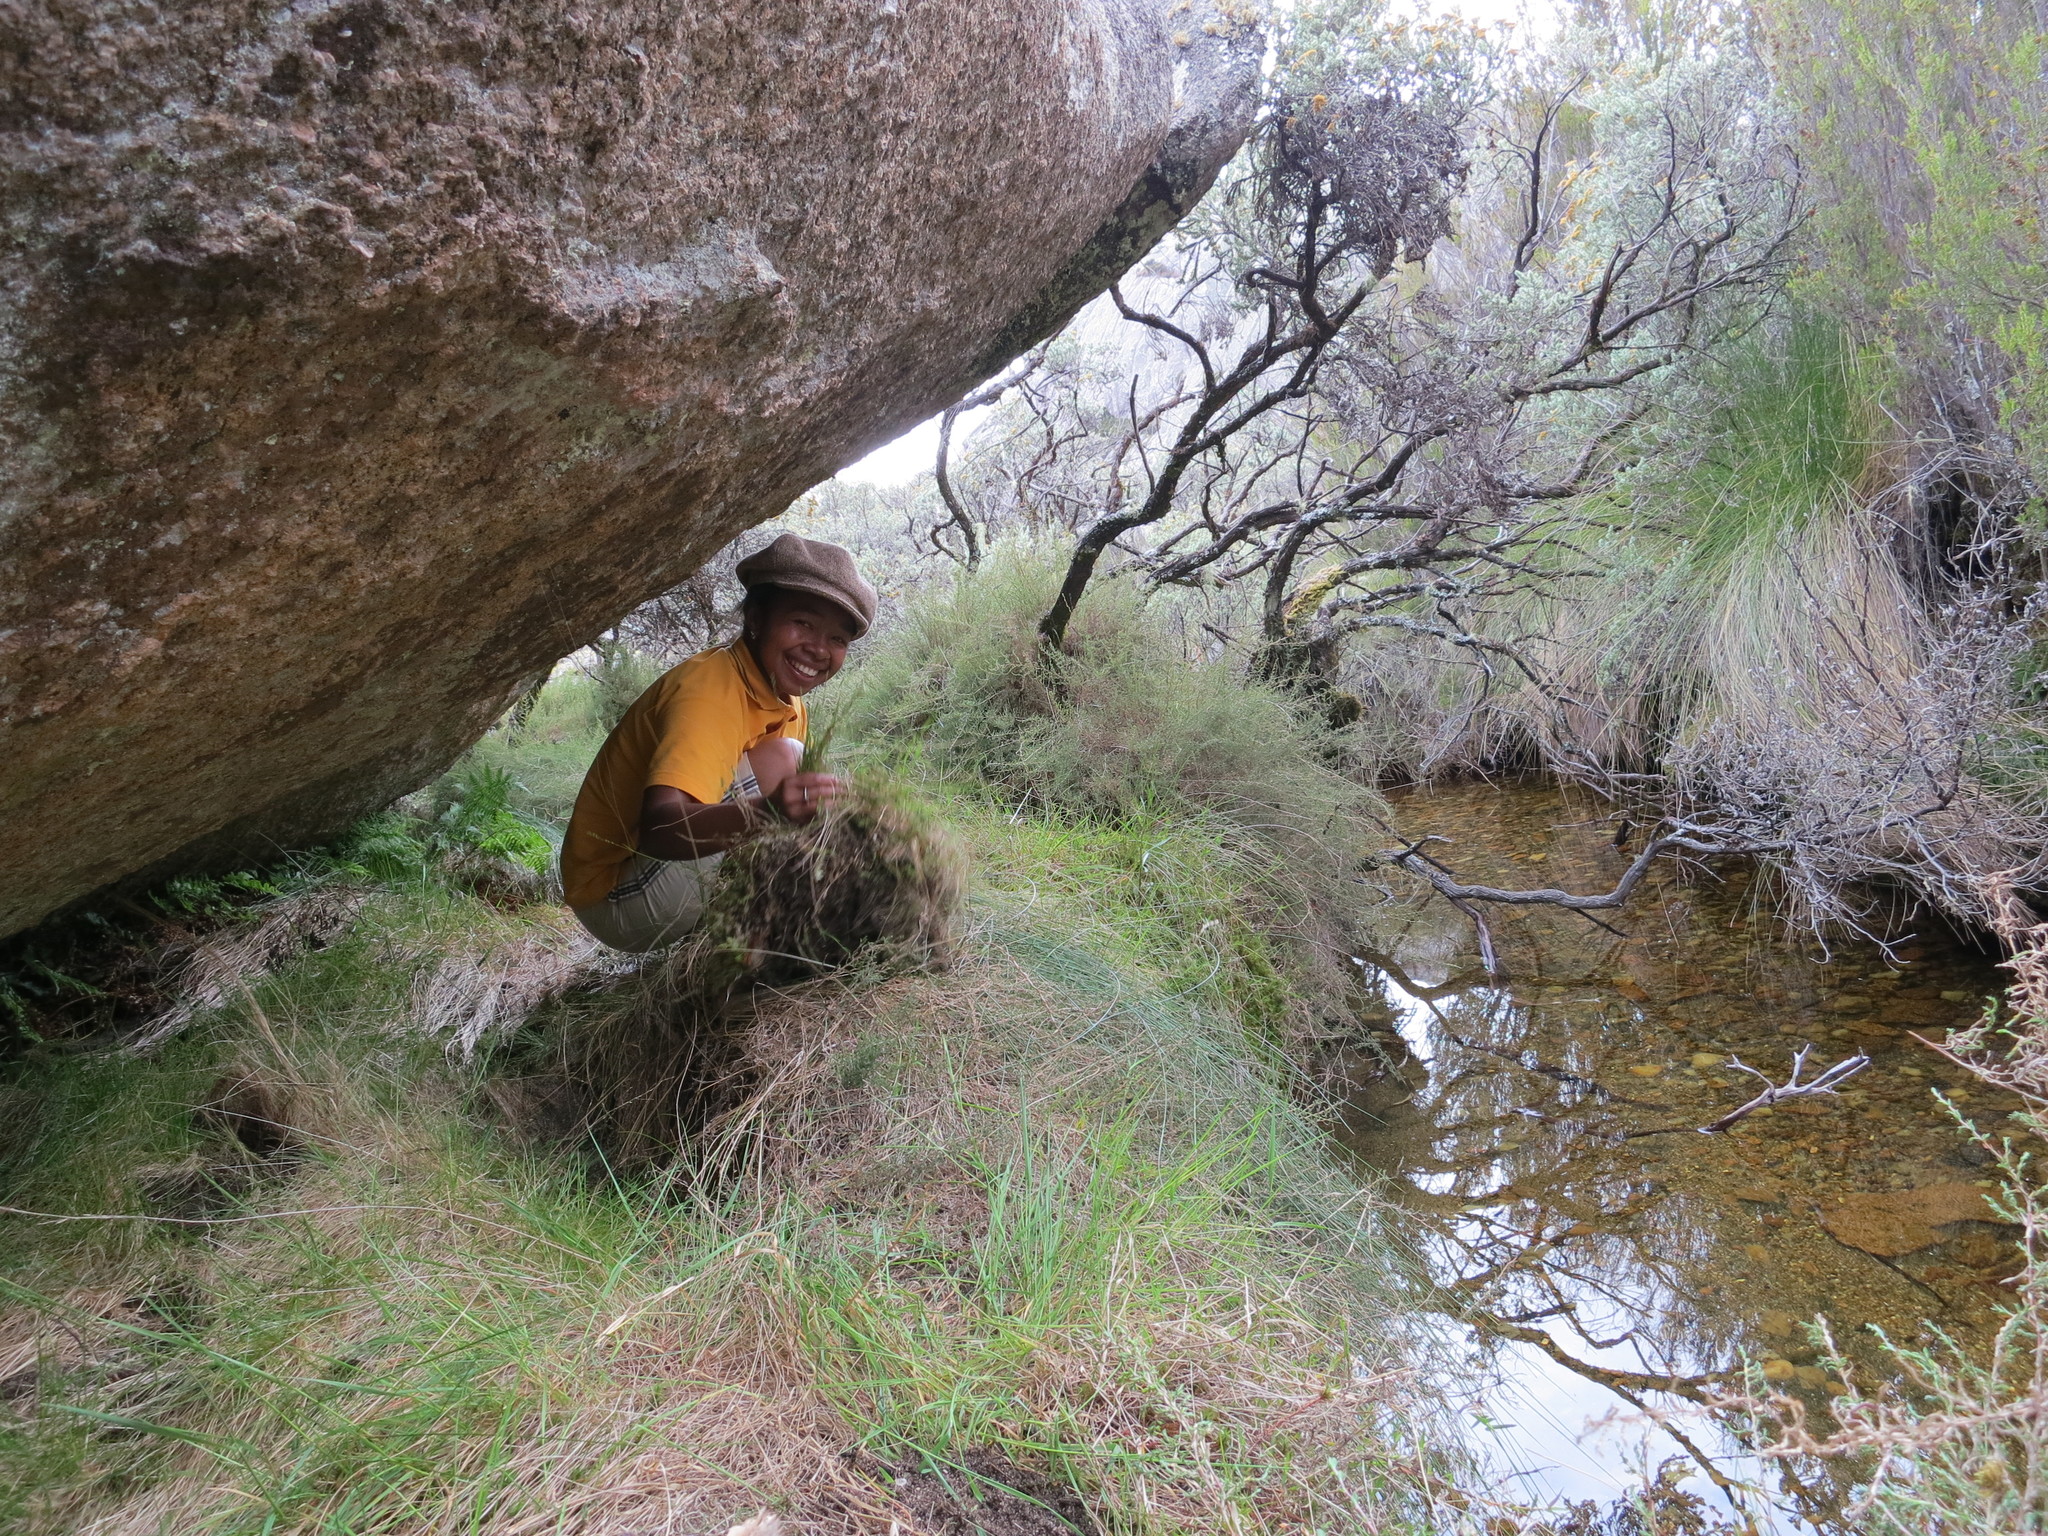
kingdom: Plantae
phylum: Tracheophyta
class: Liliopsida
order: Poales
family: Poaceae
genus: Poa
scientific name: Poa perrieri
